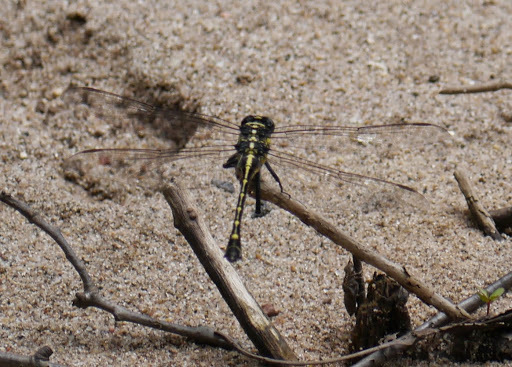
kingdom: Animalia
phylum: Arthropoda
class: Insecta
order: Odonata
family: Gomphidae
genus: Hagenius
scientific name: Hagenius brevistylus
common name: Dragonhunter
